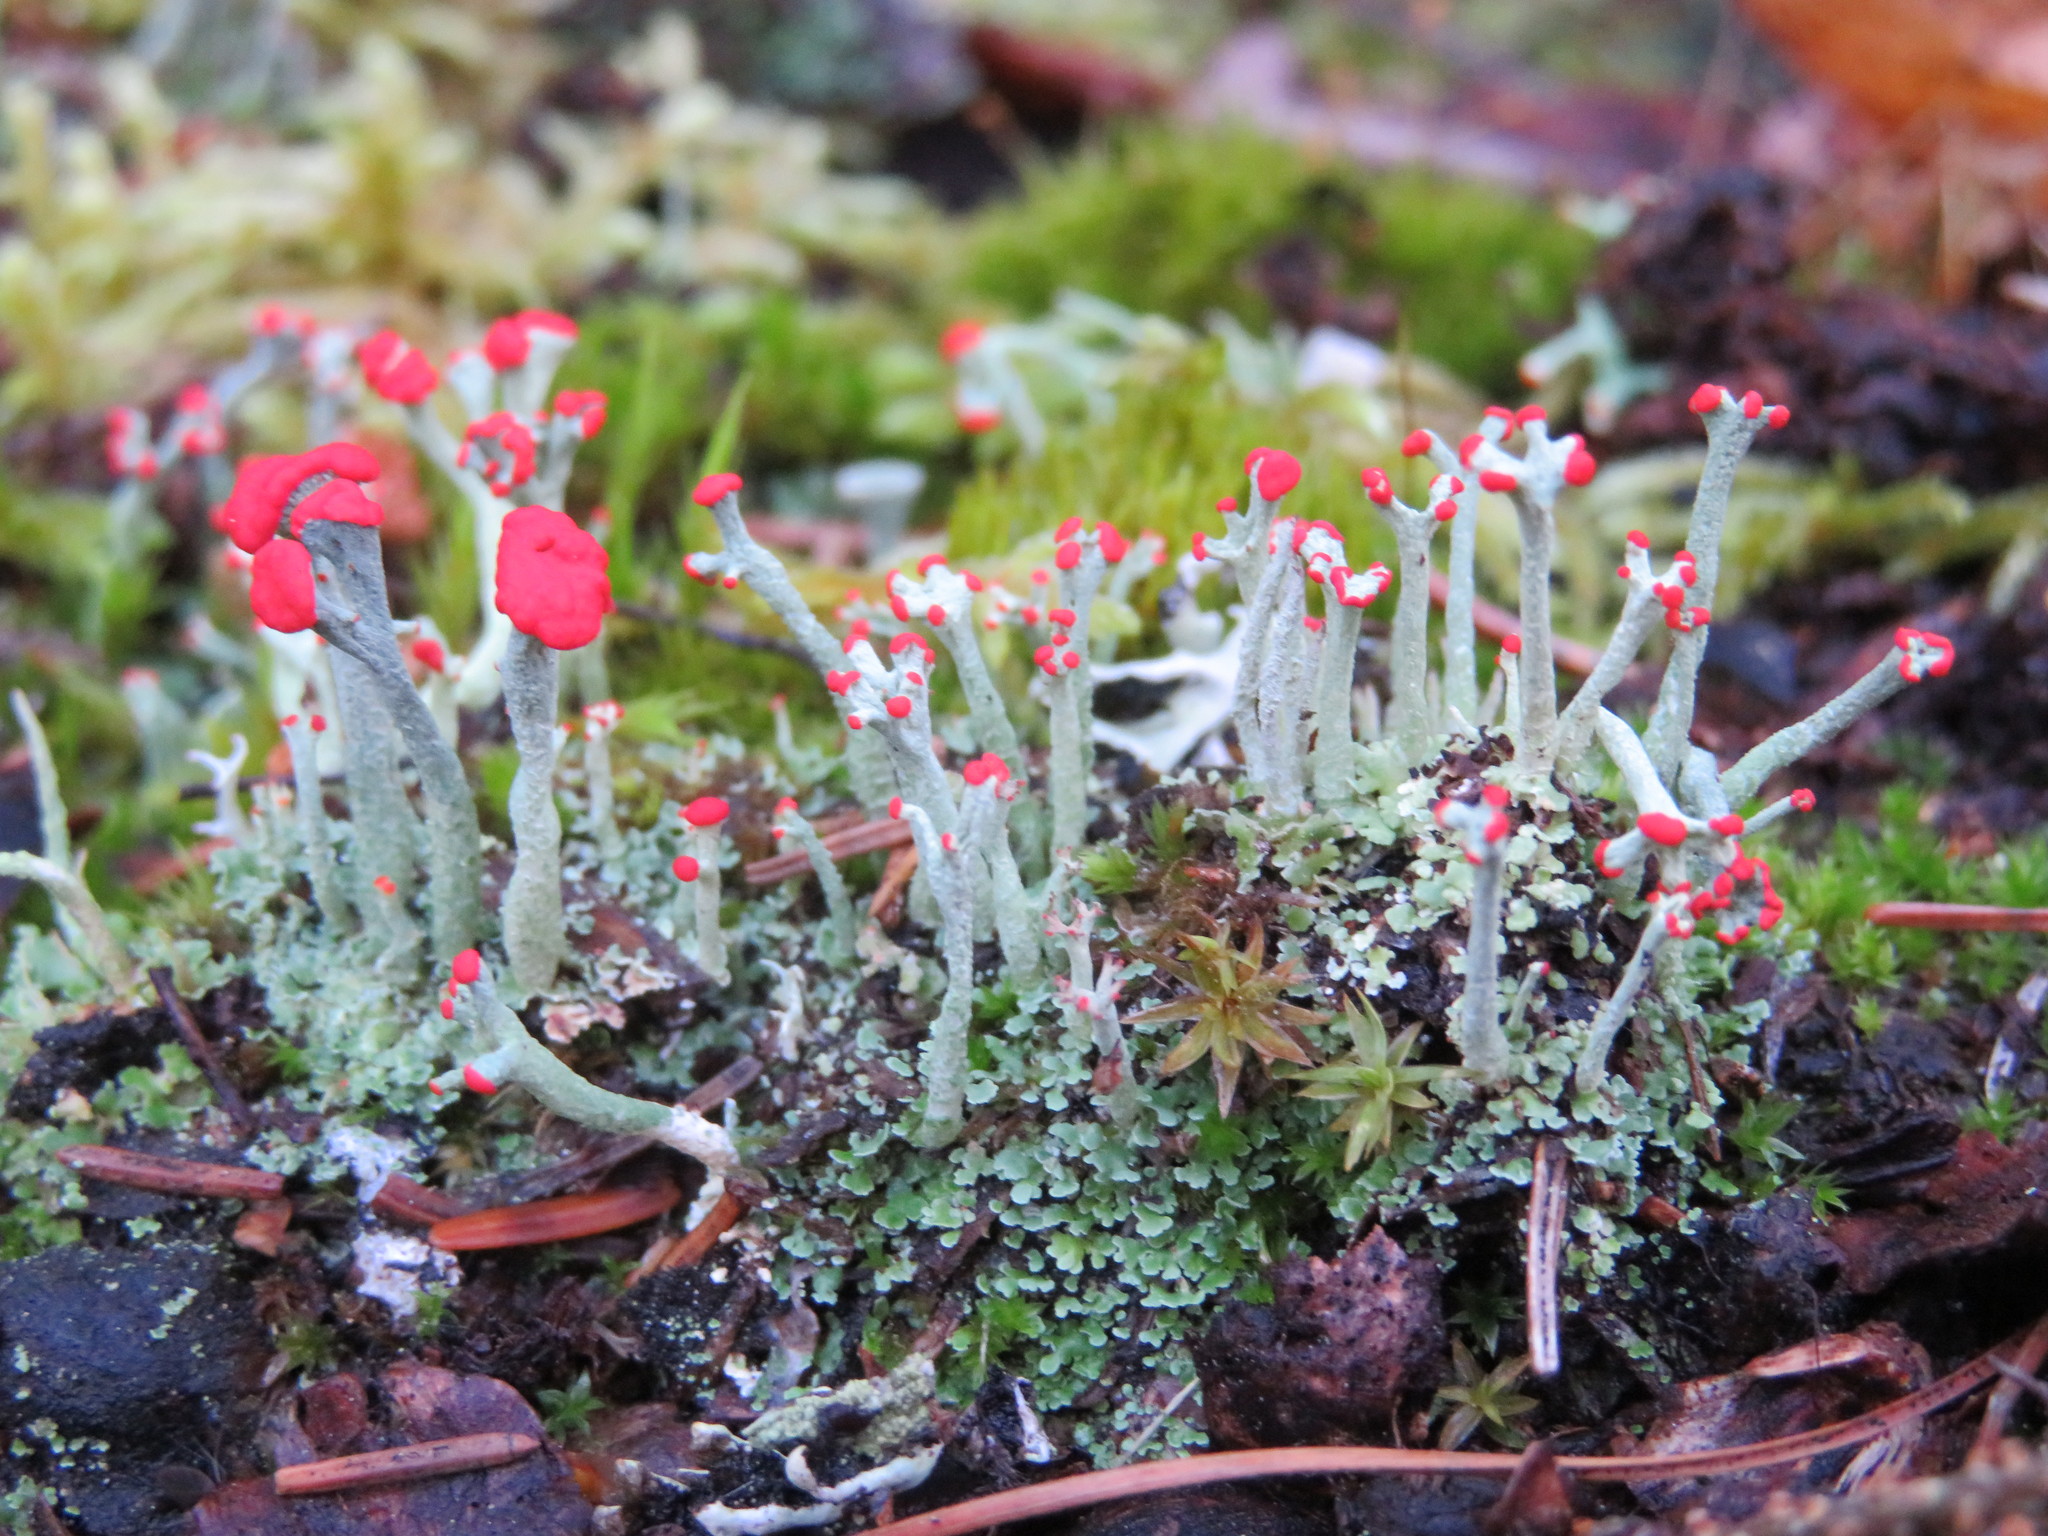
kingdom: Fungi
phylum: Ascomycota
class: Lecanoromycetes
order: Lecanorales
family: Cladoniaceae
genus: Cladonia
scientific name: Cladonia cristatella
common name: British soldier lichen
